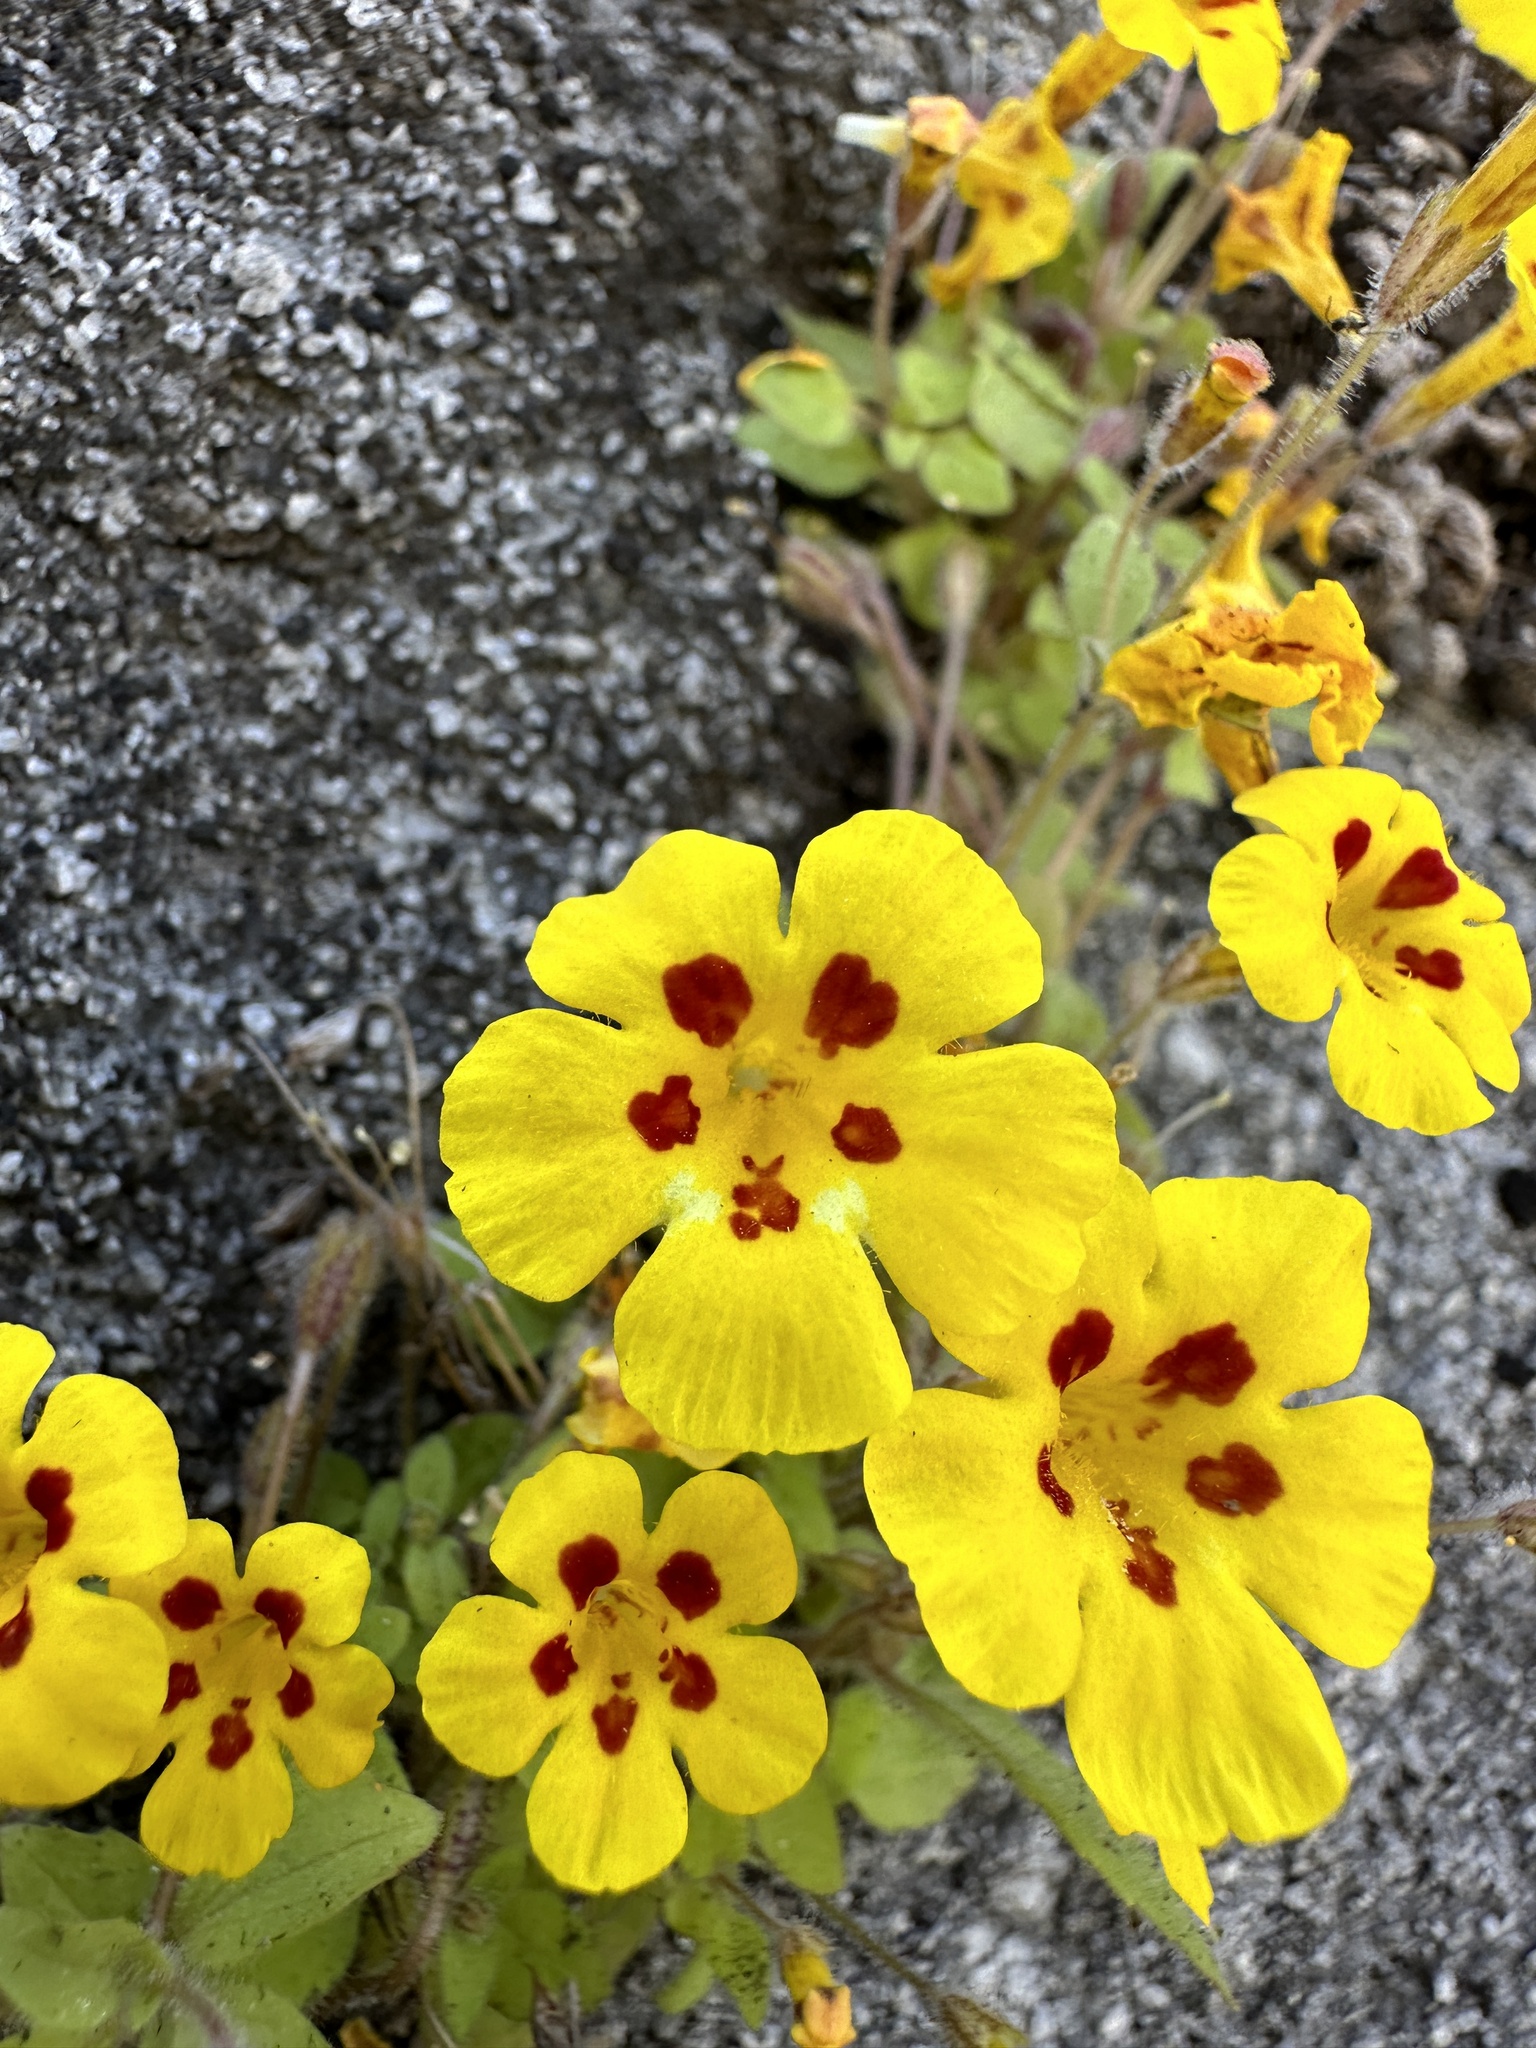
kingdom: Plantae
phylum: Tracheophyta
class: Magnoliopsida
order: Lamiales
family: Phrymaceae
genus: Erythranthe
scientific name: Erythranthe norrisii
